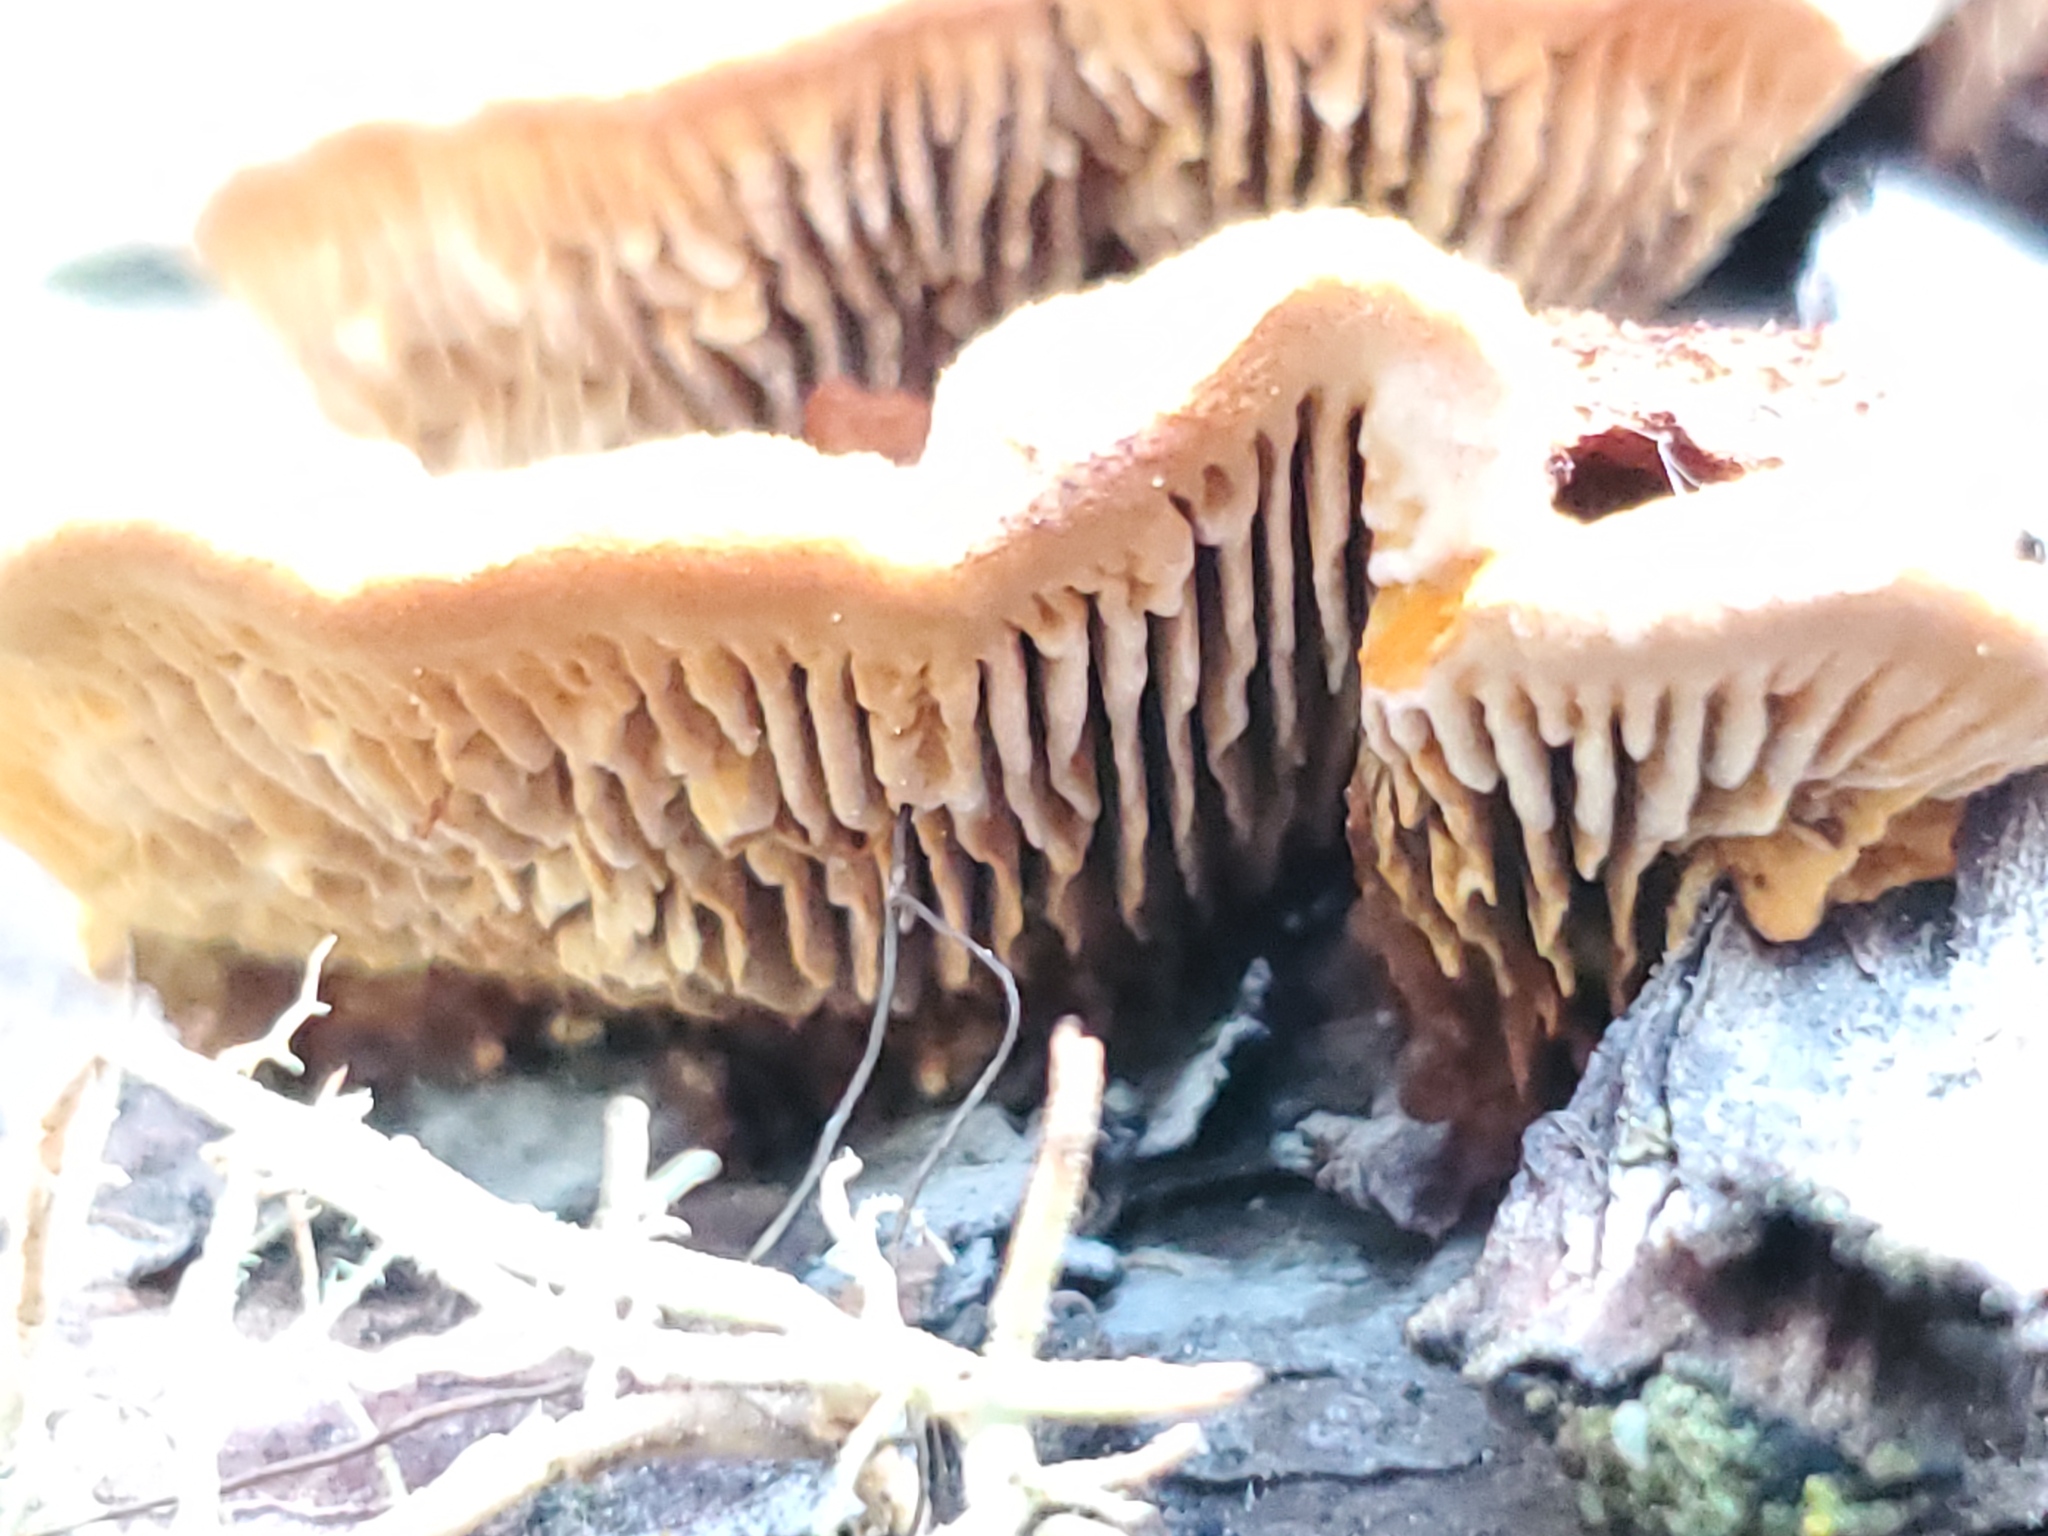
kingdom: Fungi
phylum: Basidiomycota
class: Agaricomycetes
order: Gloeophyllales
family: Gloeophyllaceae
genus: Gloeophyllum
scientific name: Gloeophyllum sepiarium
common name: Conifer mazegill
